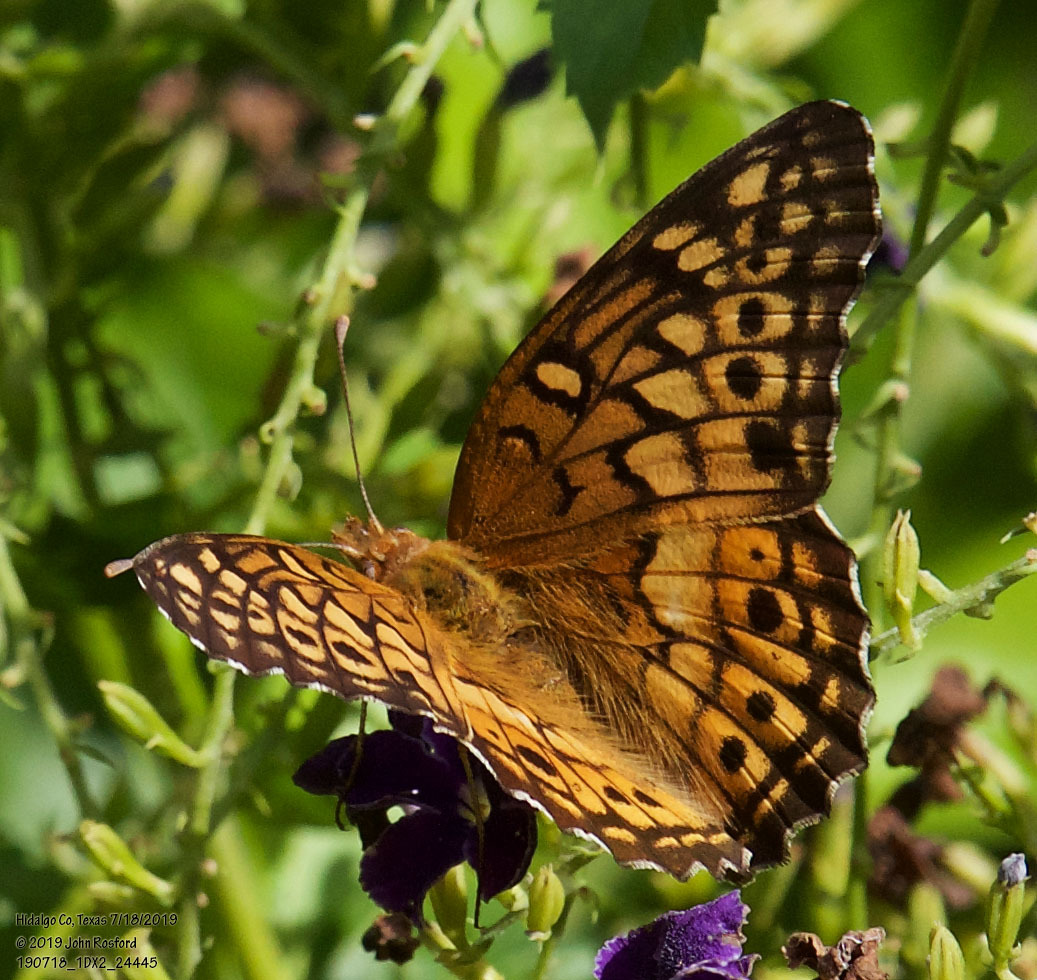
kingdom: Animalia
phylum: Arthropoda
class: Insecta
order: Lepidoptera
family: Nymphalidae
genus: Euptoieta
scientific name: Euptoieta claudia
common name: Variegated fritillary
